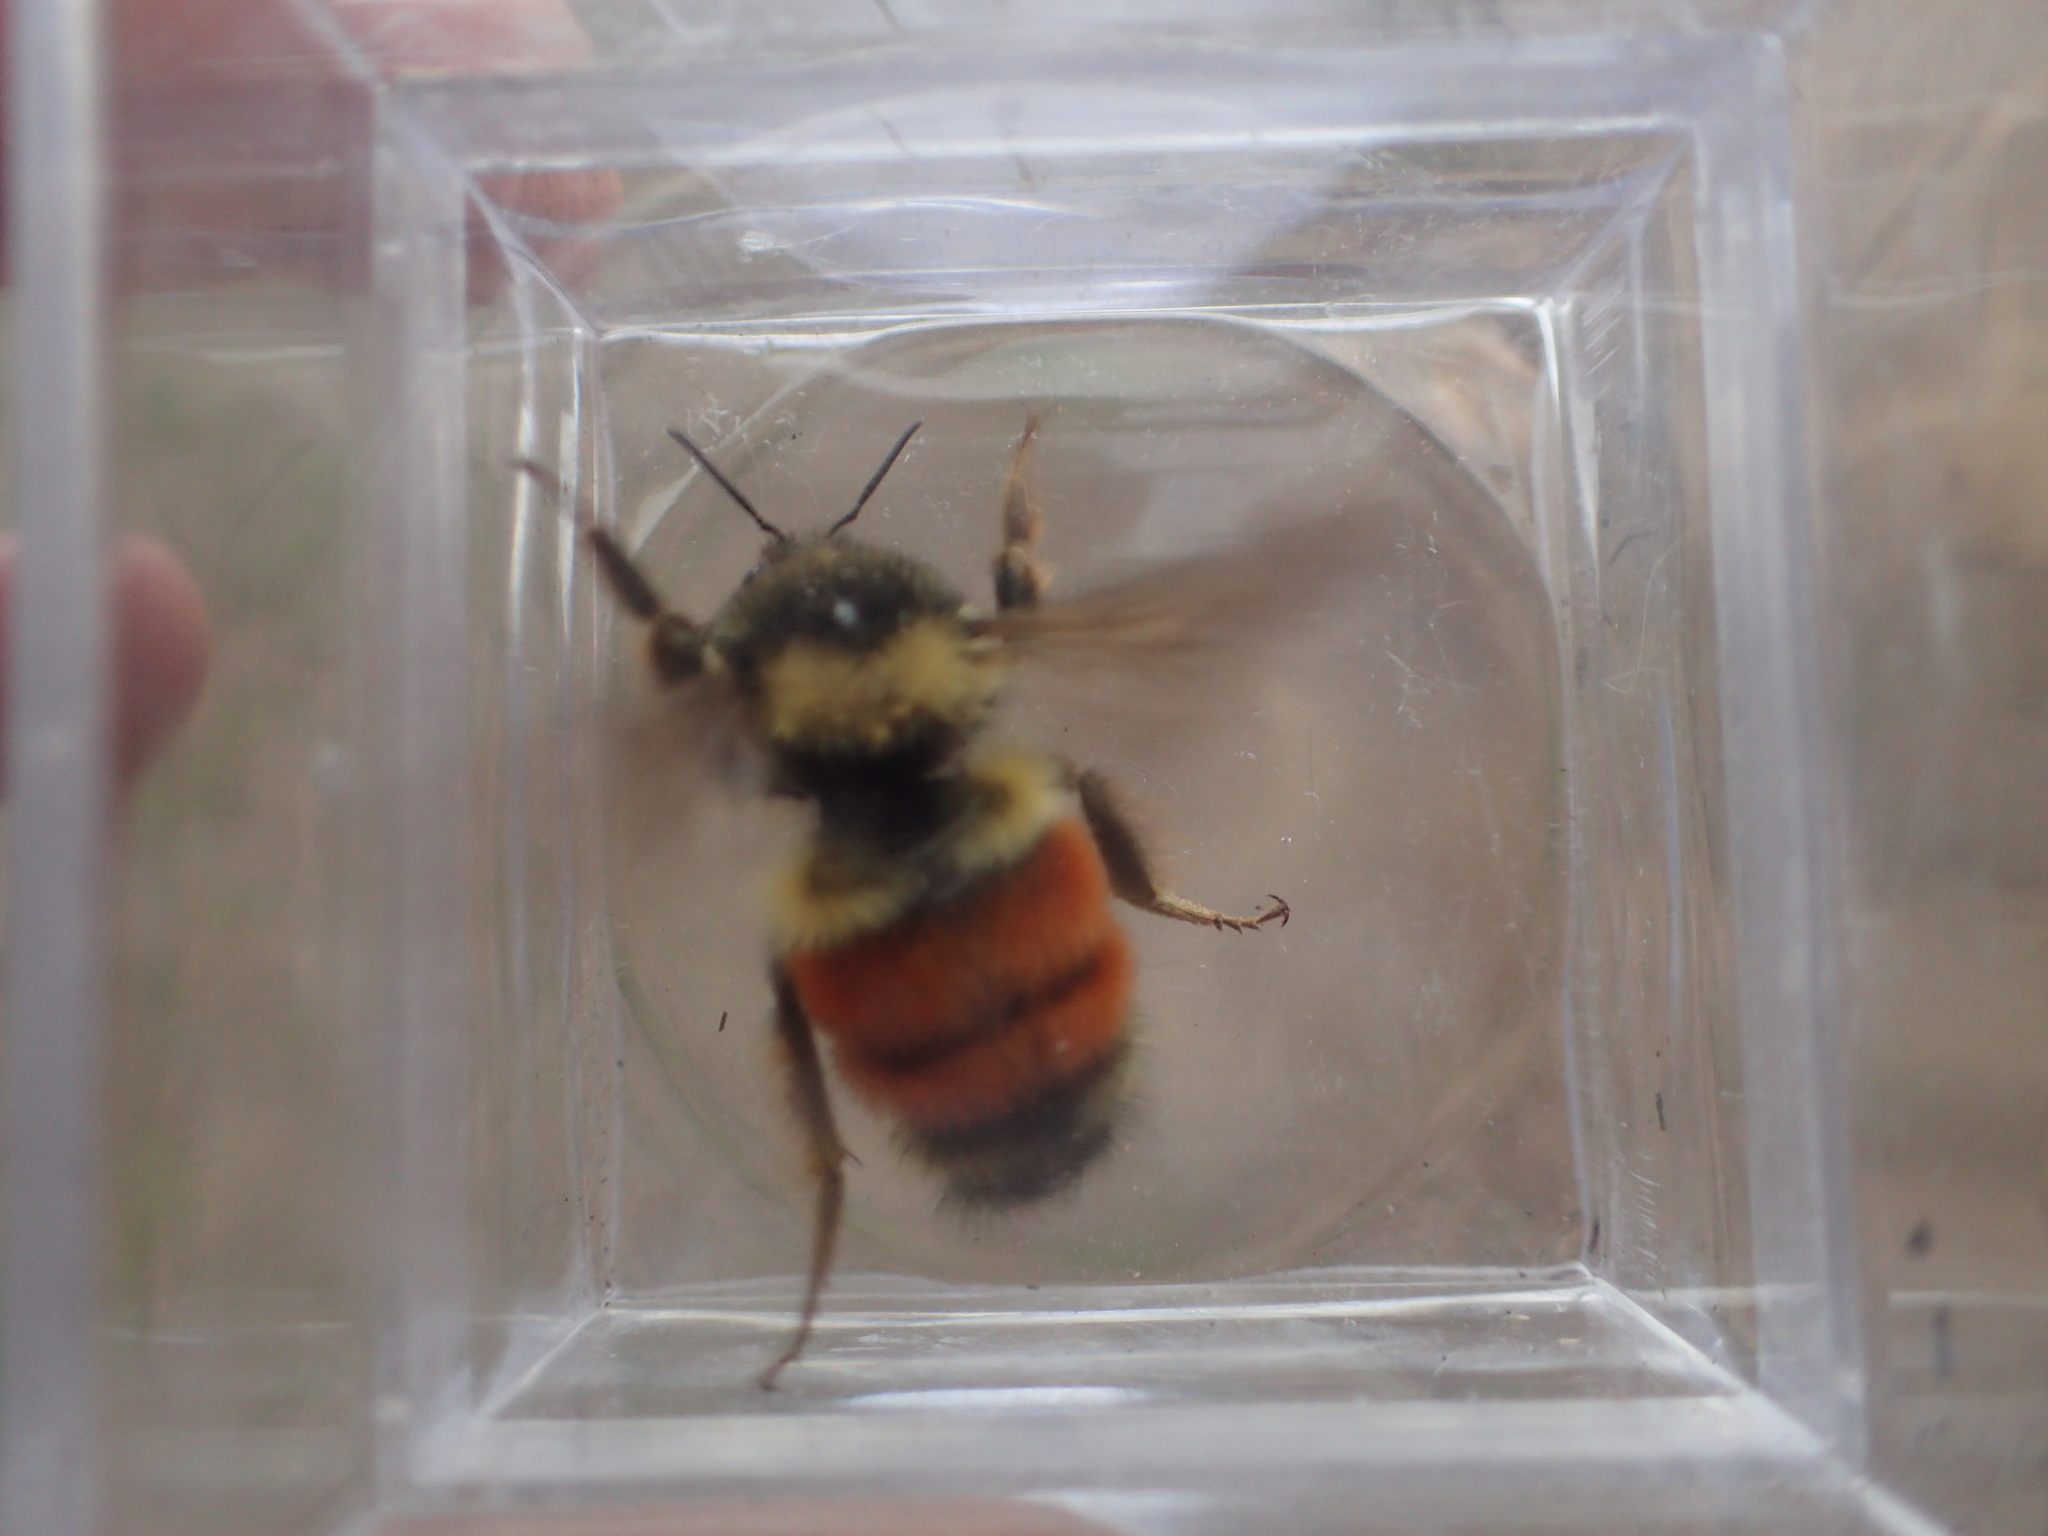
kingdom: Animalia
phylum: Arthropoda
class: Insecta
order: Hymenoptera
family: Apidae
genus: Bombus
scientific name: Bombus melanopygus
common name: Black tail bumble bee
